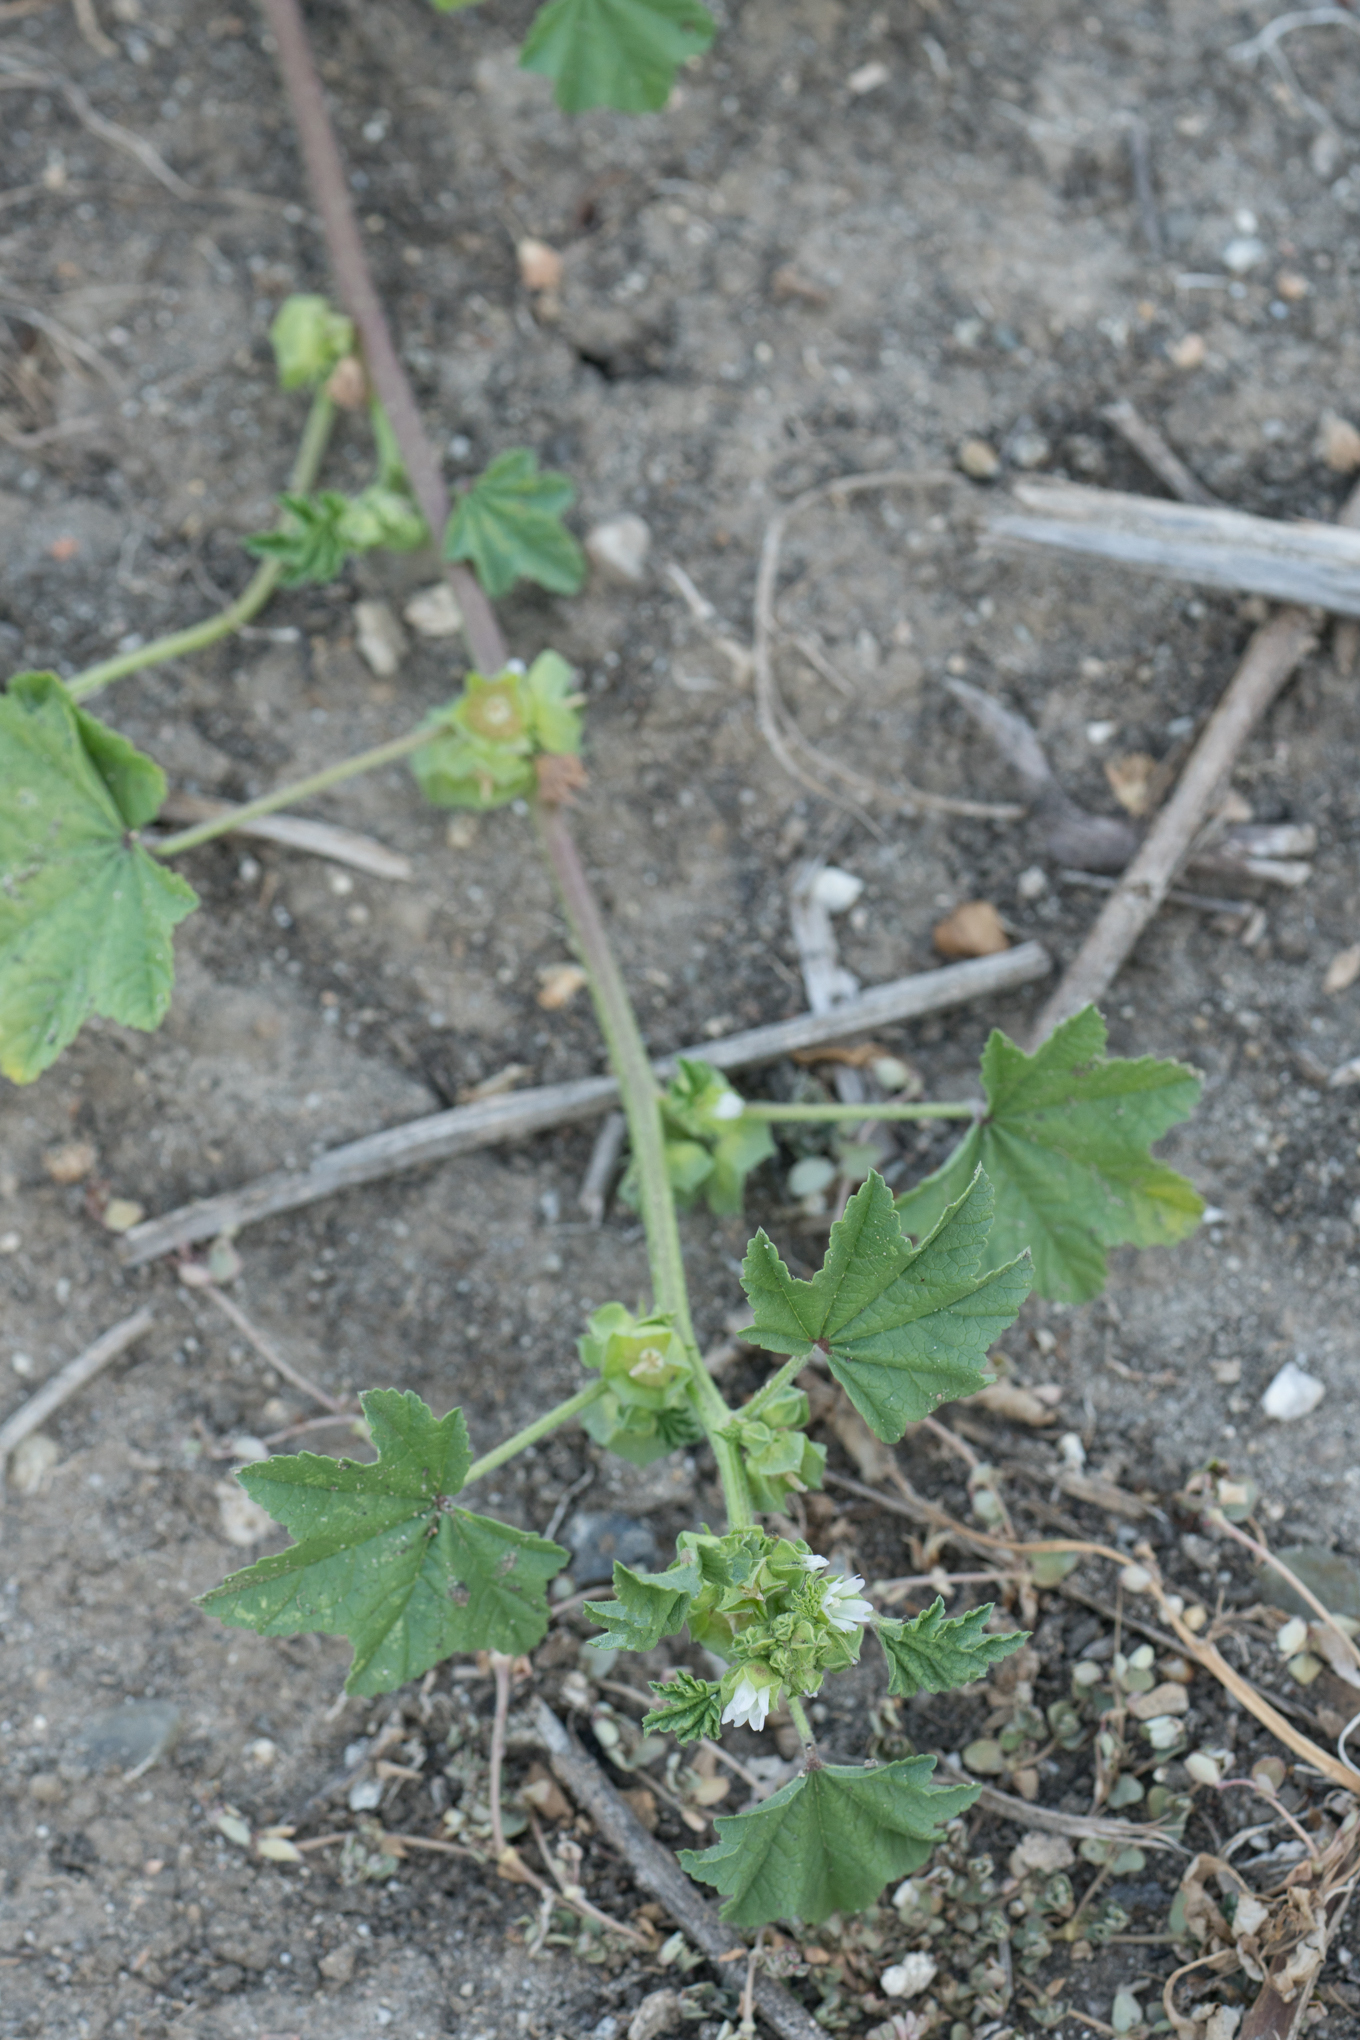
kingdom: Plantae
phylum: Tracheophyta
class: Magnoliopsida
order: Malvales
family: Malvaceae
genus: Malva
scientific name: Malva parviflora
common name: Least mallow
